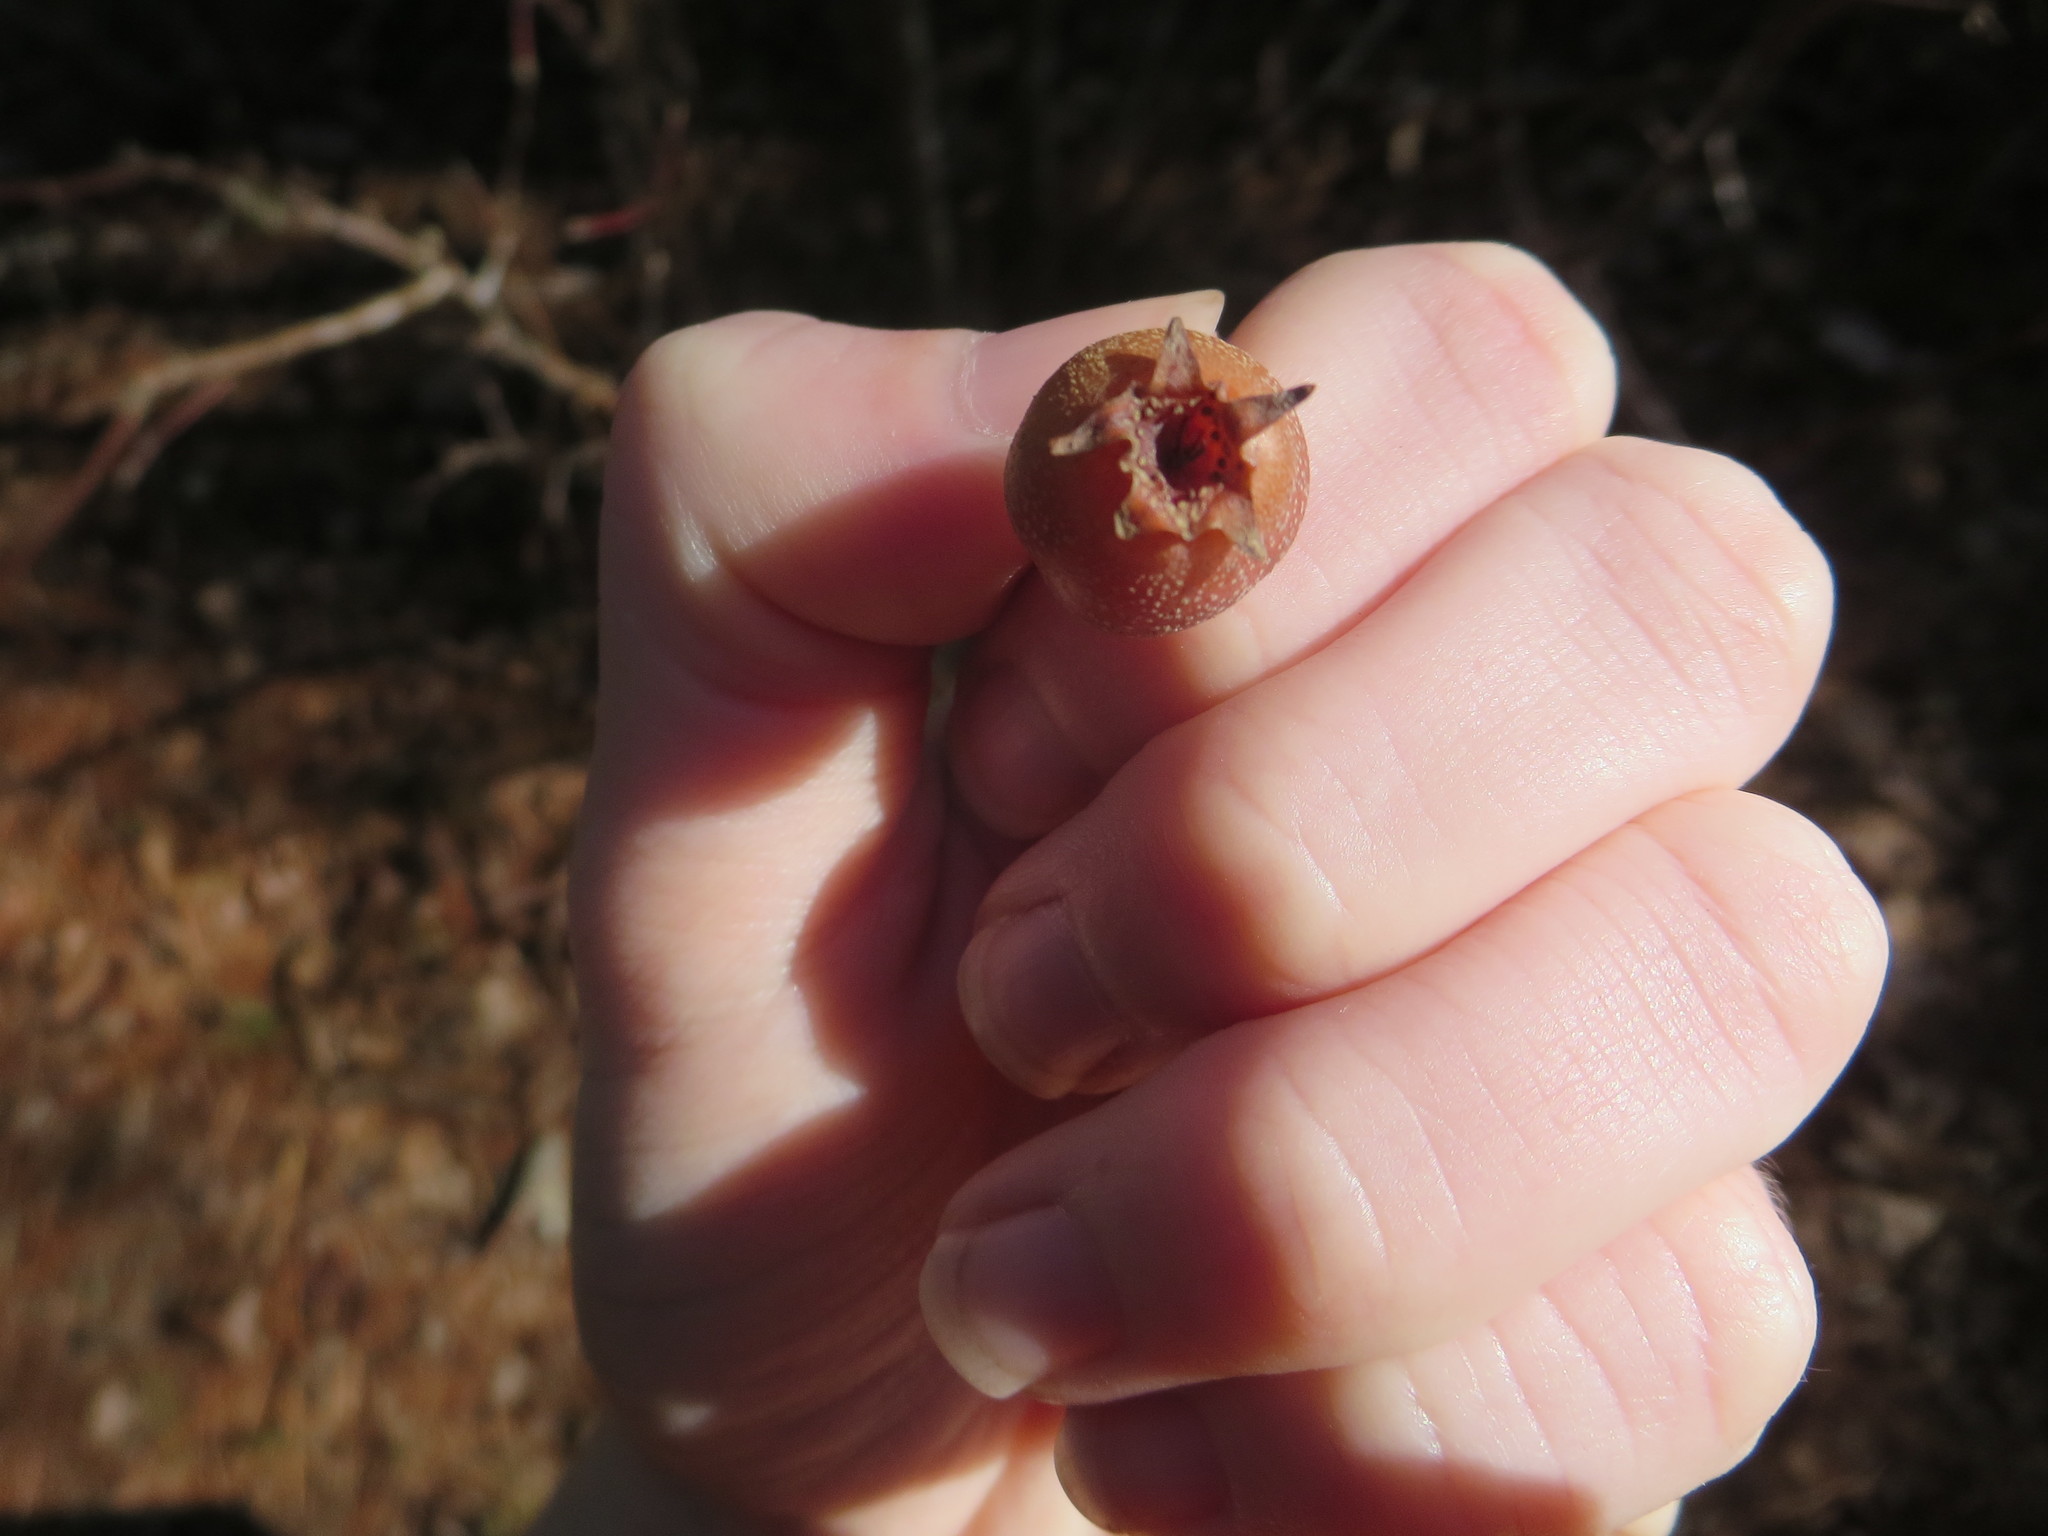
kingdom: Plantae
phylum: Tracheophyta
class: Magnoliopsida
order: Rosales
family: Rosaceae
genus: Pyrus
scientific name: Pyrus calleryana
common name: Callery pear
